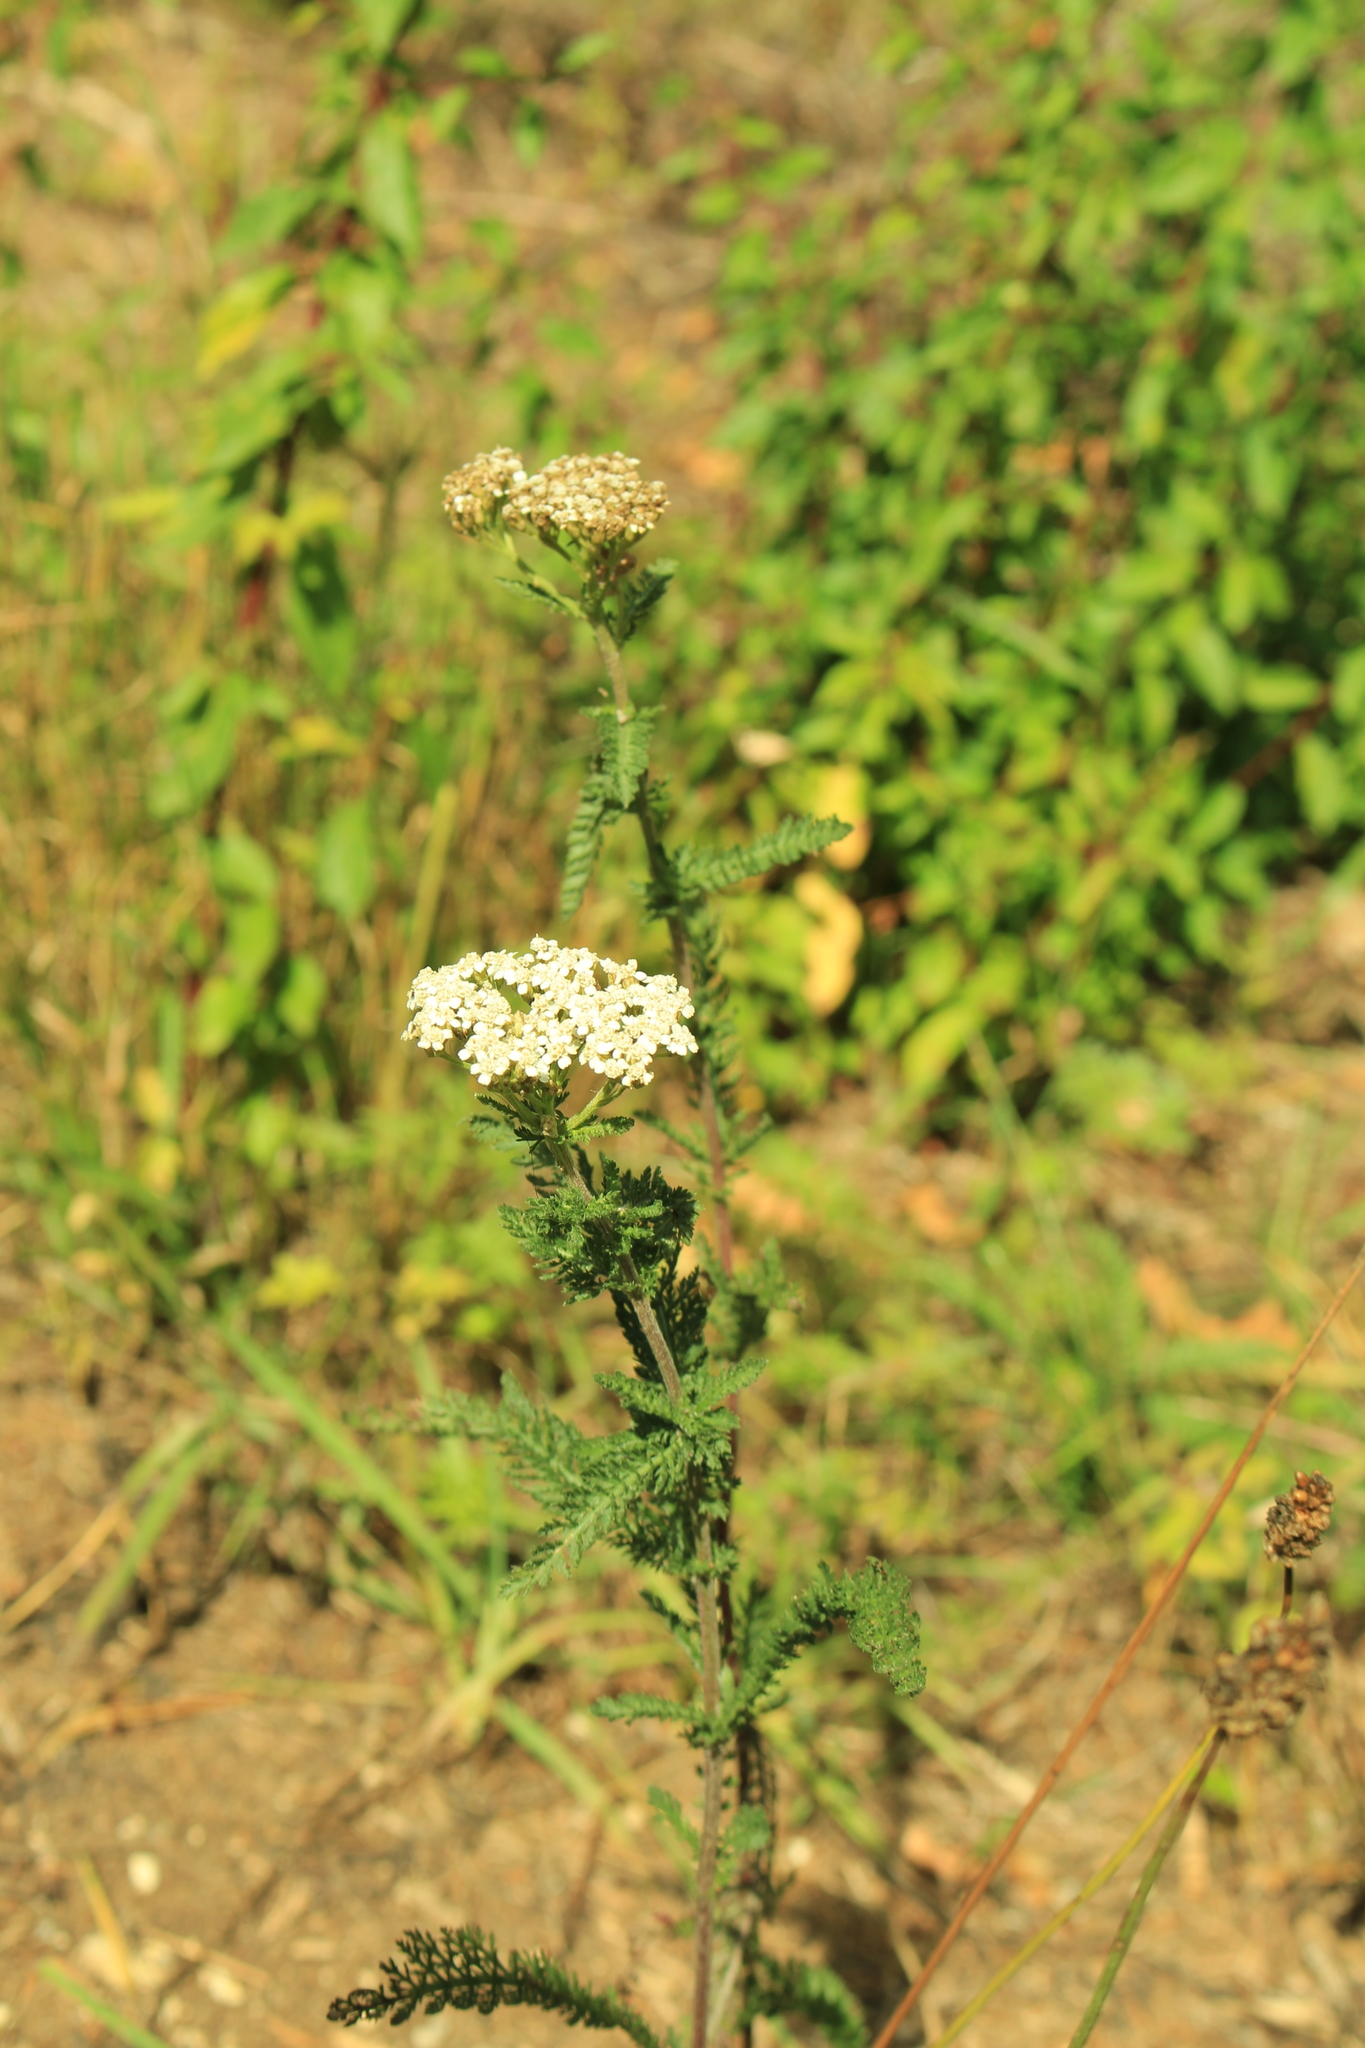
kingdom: Plantae
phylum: Tracheophyta
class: Magnoliopsida
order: Asterales
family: Asteraceae
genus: Achillea
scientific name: Achillea millefolium
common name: Yarrow
